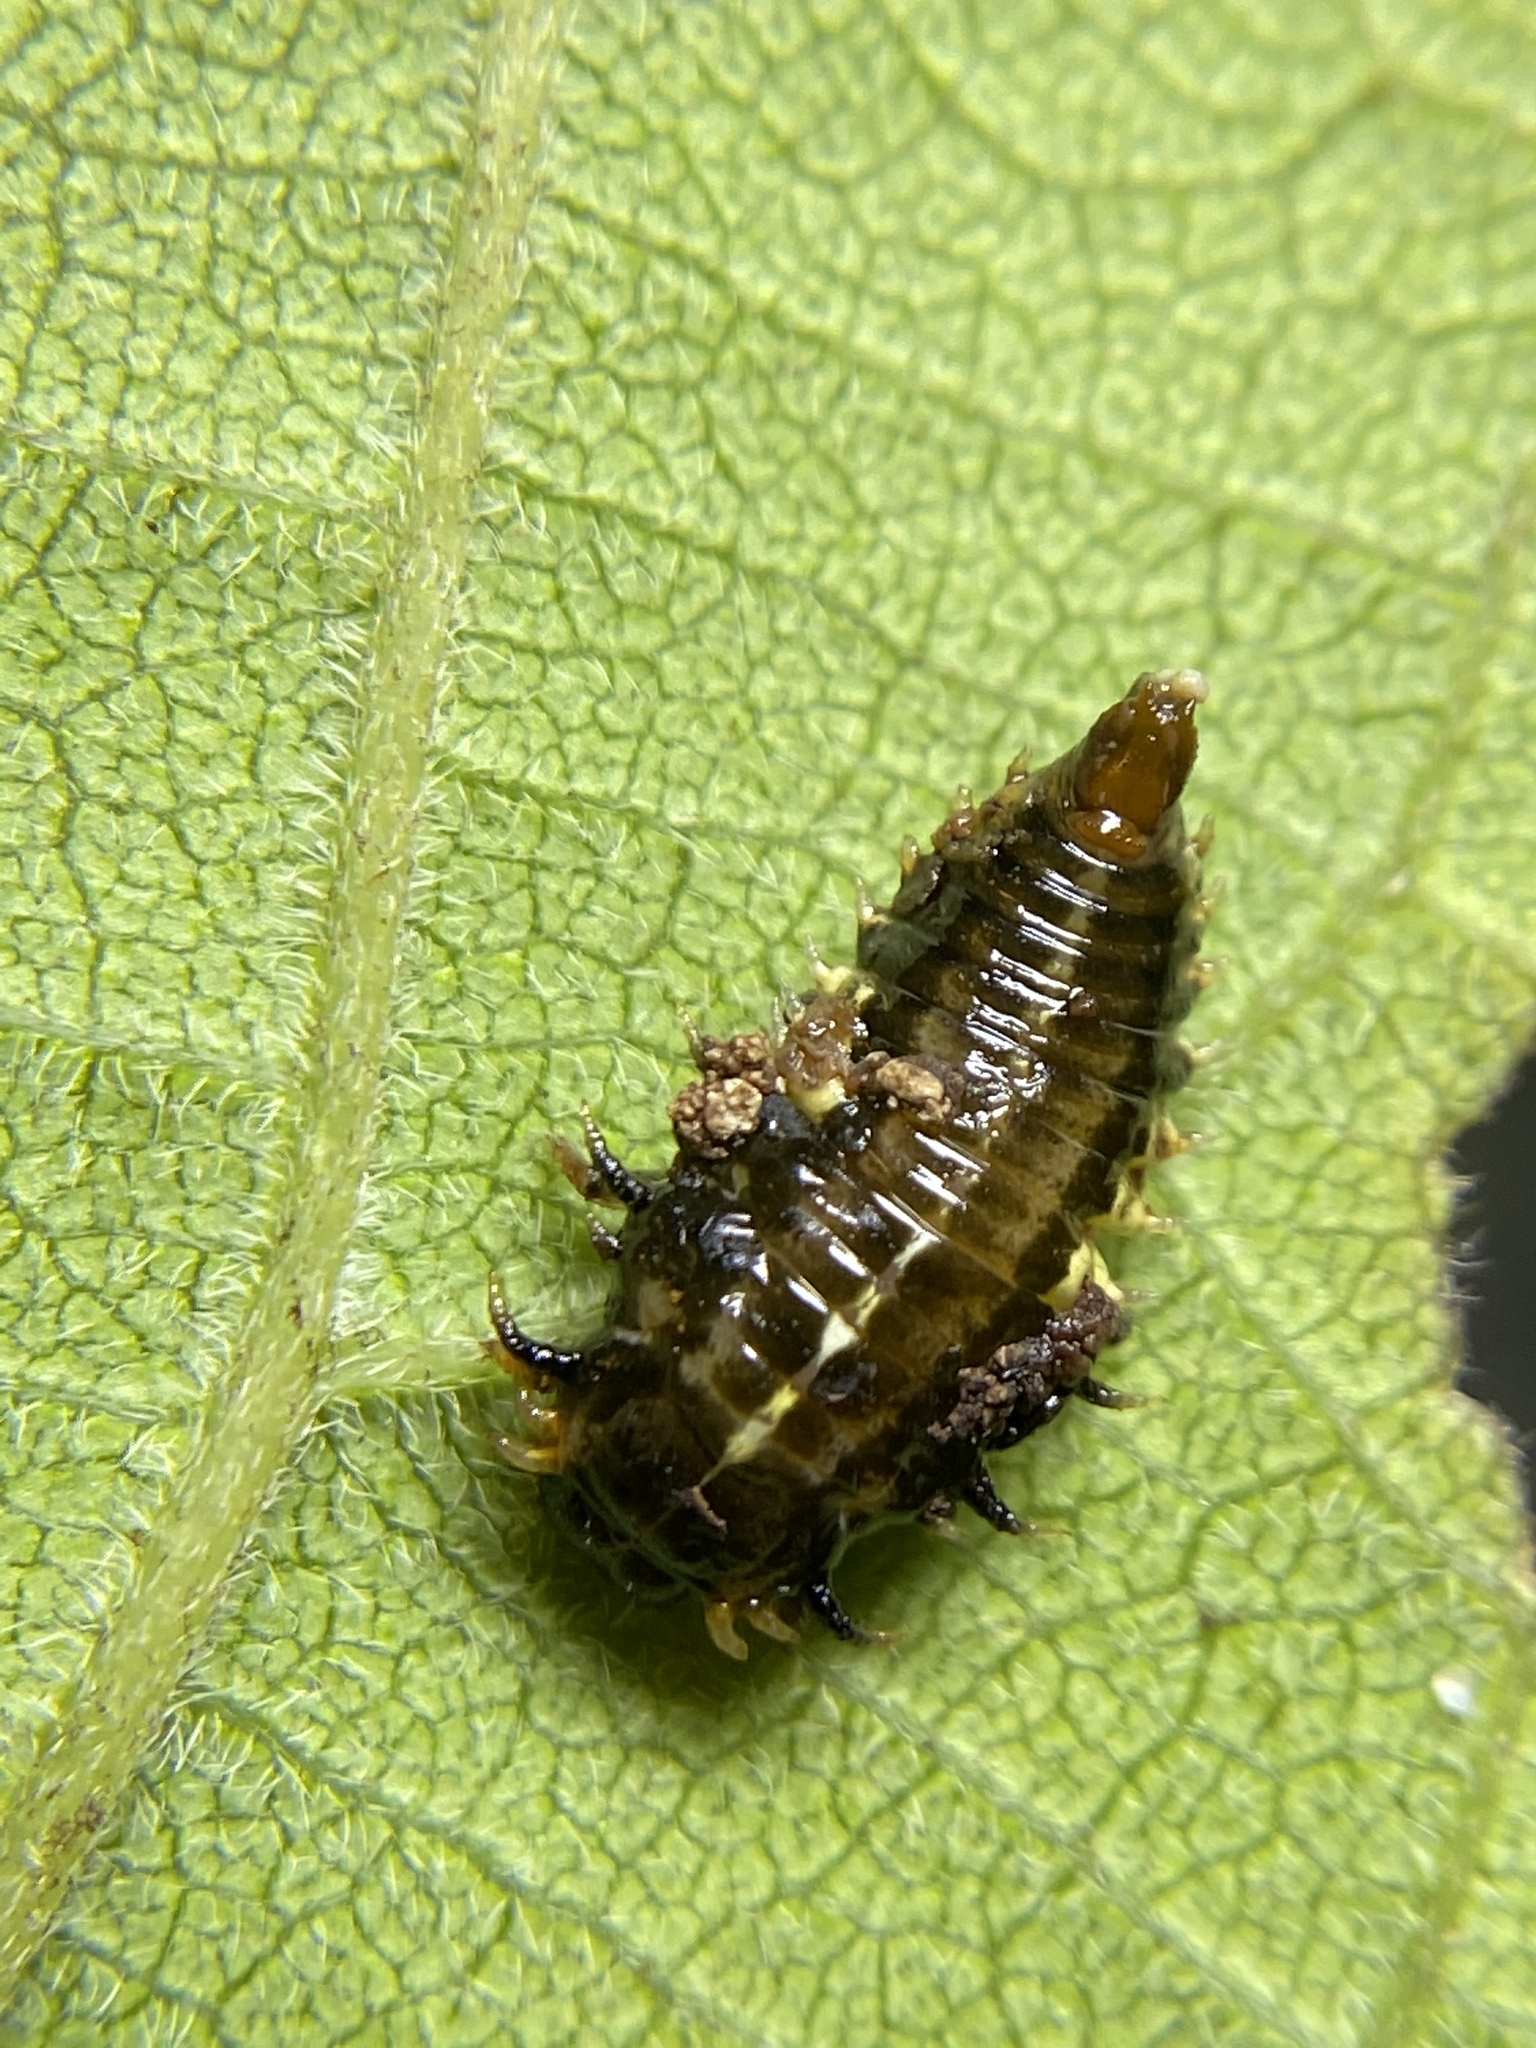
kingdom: Animalia
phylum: Arthropoda
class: Insecta
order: Coleoptera
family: Chrysomelidae
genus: Eurypepla
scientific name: Eurypepla calochroma
